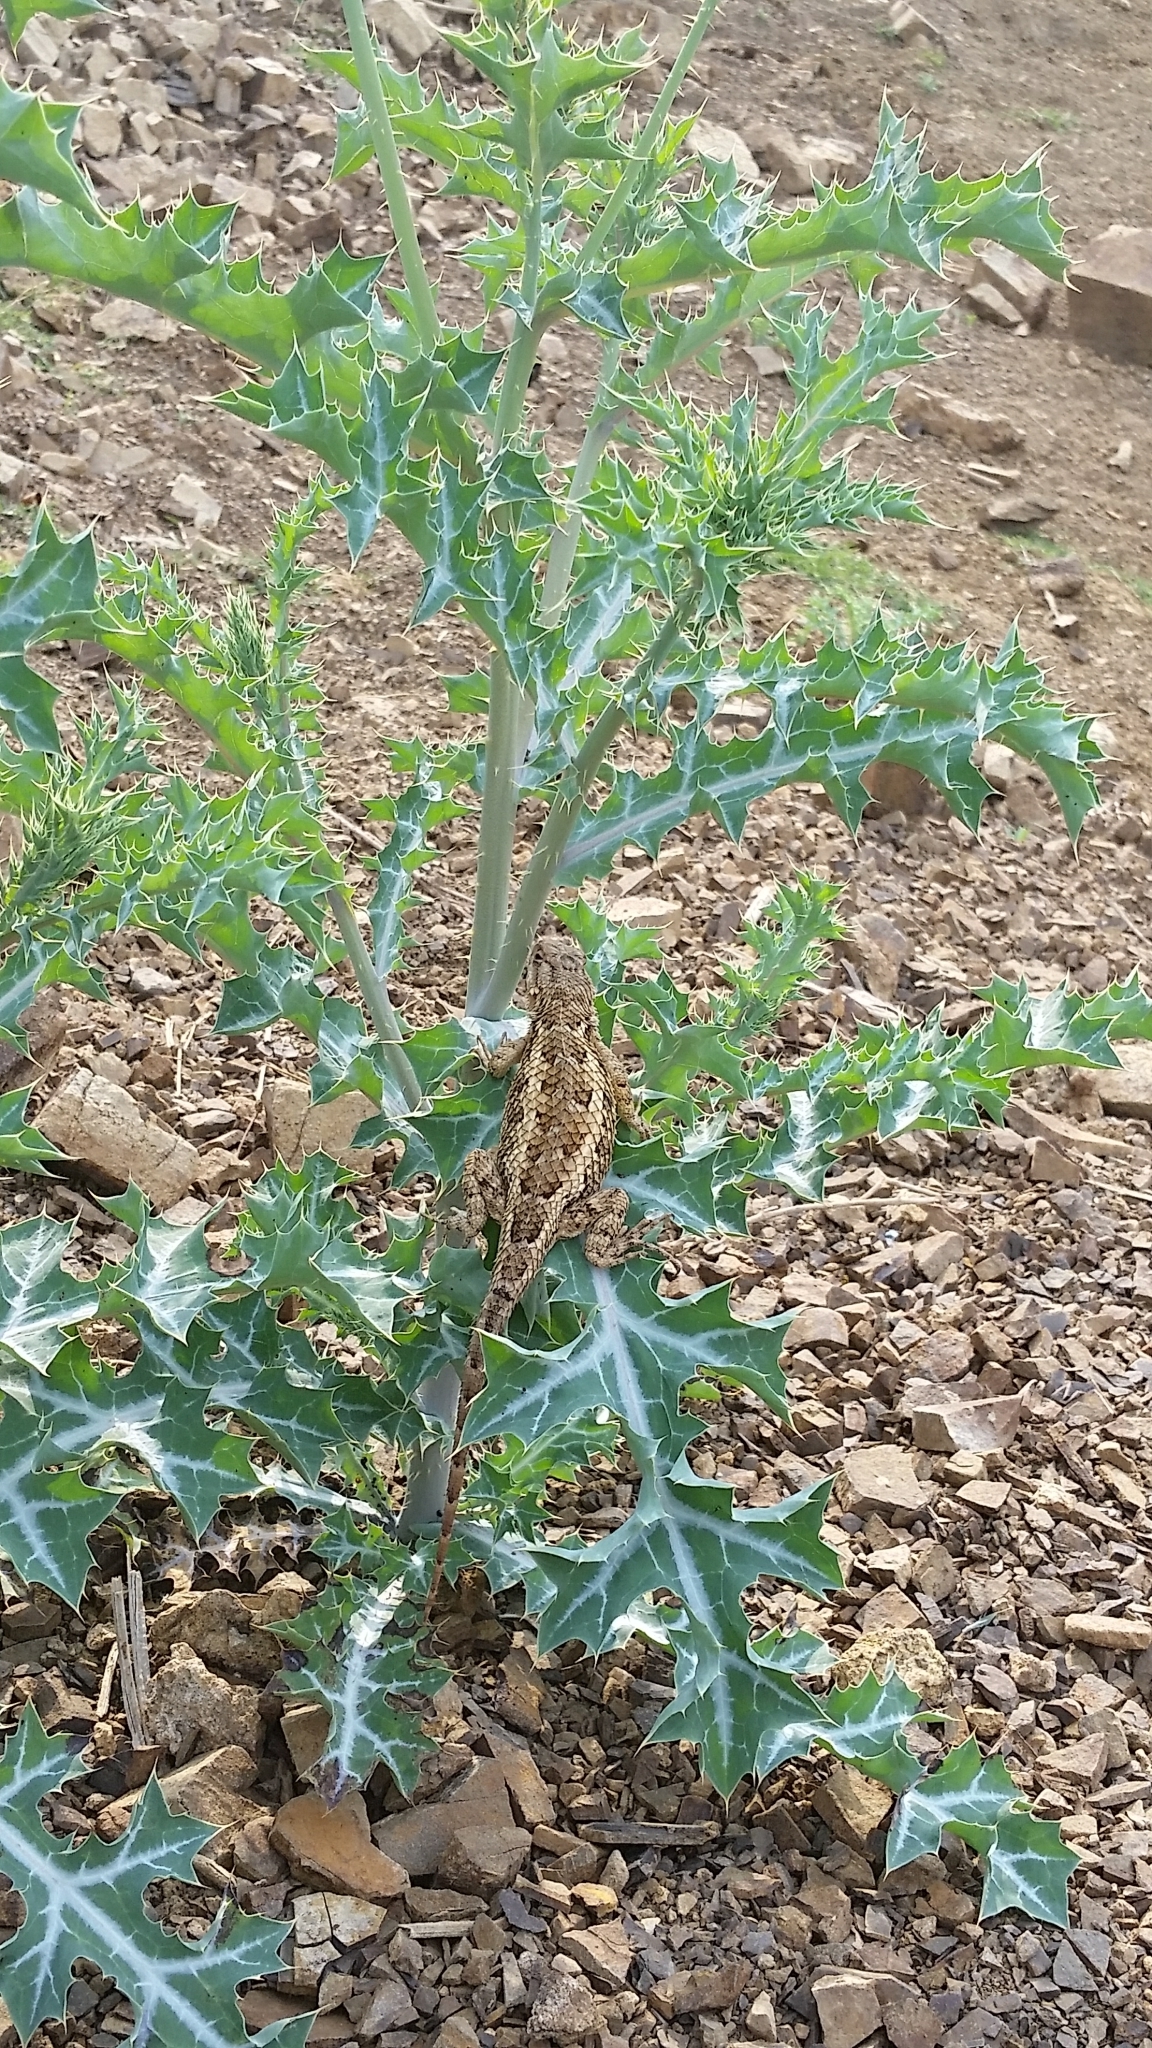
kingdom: Animalia
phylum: Chordata
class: Squamata
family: Phrynosomatidae
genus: Sceloporus
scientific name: Sceloporus spinosus
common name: Blue-spotted spiny lizard [caeruleopunctatus]
